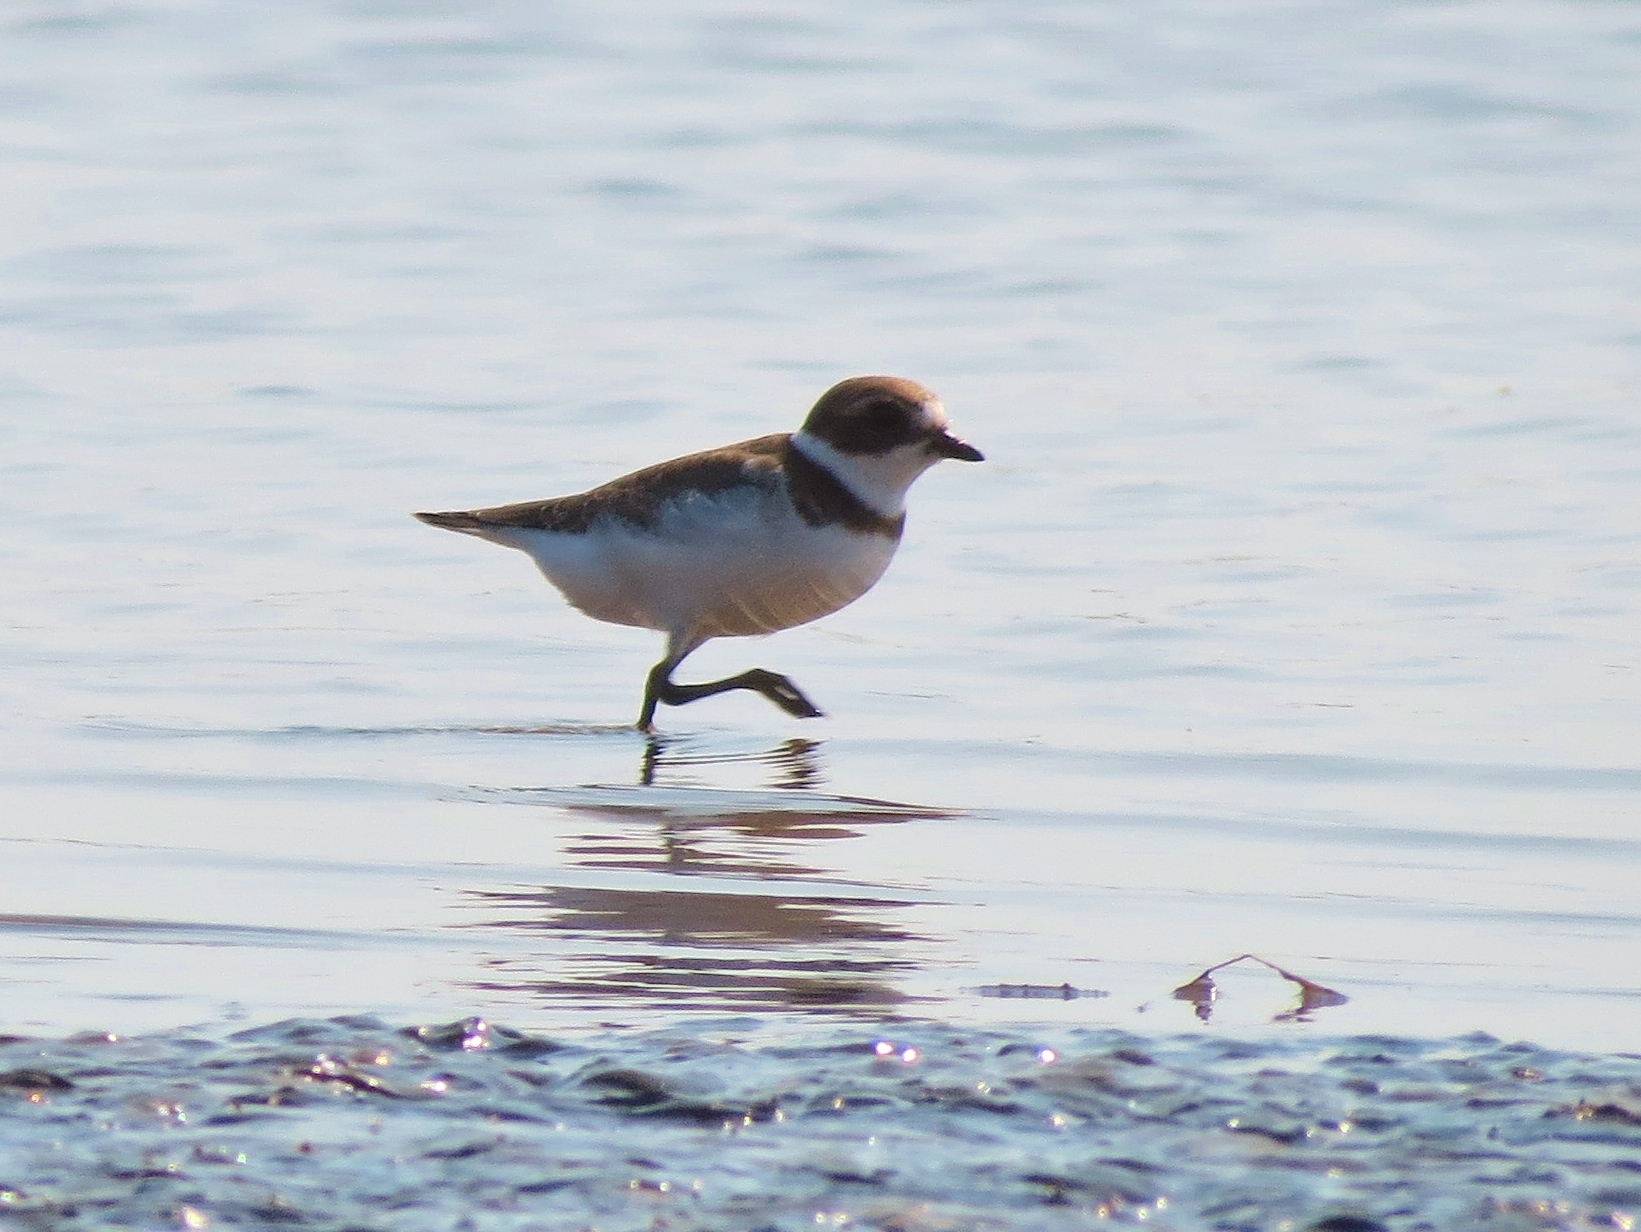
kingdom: Animalia
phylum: Chordata
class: Aves
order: Charadriiformes
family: Charadriidae
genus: Charadrius
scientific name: Charadrius semipalmatus
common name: Semipalmated plover
